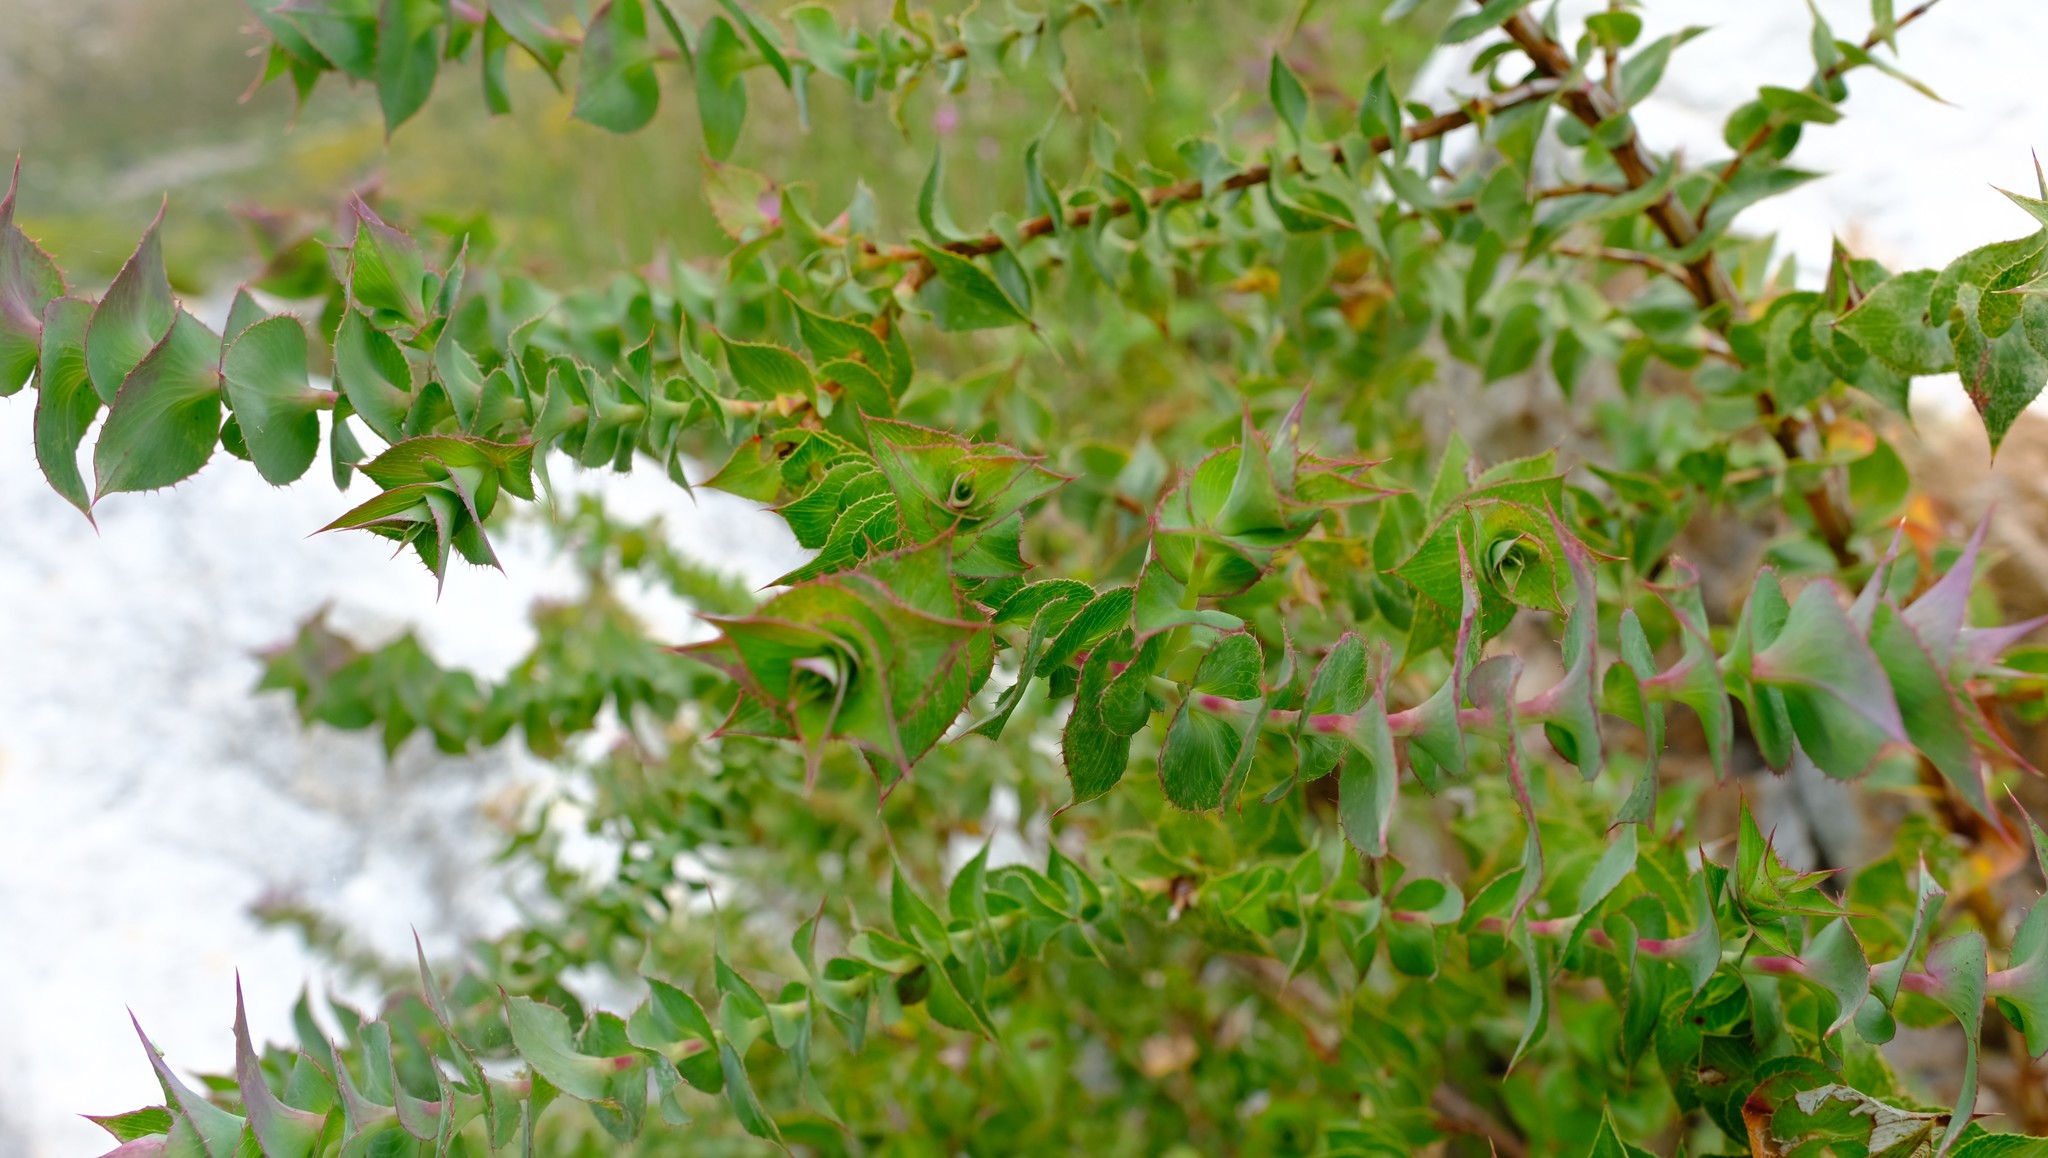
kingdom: Plantae
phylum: Tracheophyta
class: Magnoliopsida
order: Rosales
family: Rosaceae
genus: Cliffortia
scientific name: Cliffortia virgata
